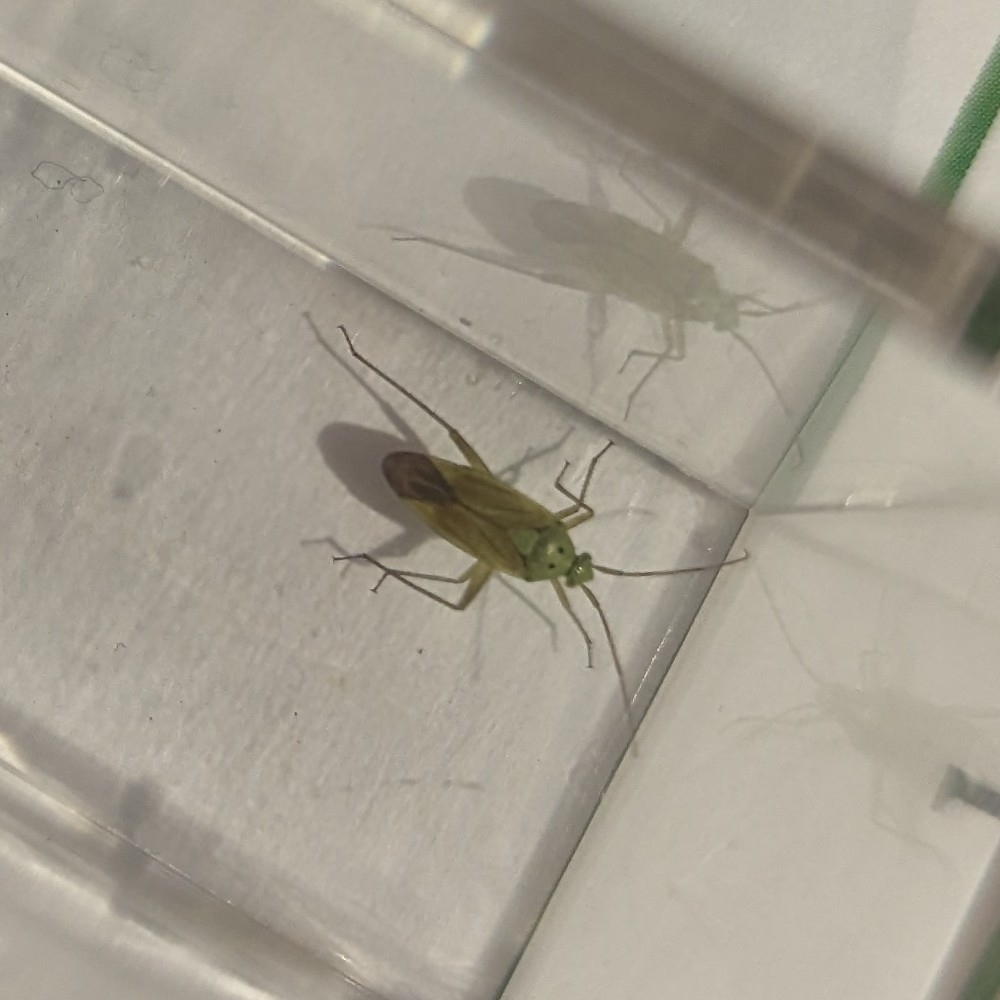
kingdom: Animalia
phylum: Arthropoda
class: Insecta
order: Hemiptera
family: Miridae
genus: Closterotomus
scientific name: Closterotomus norvegicus
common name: Plant bug
